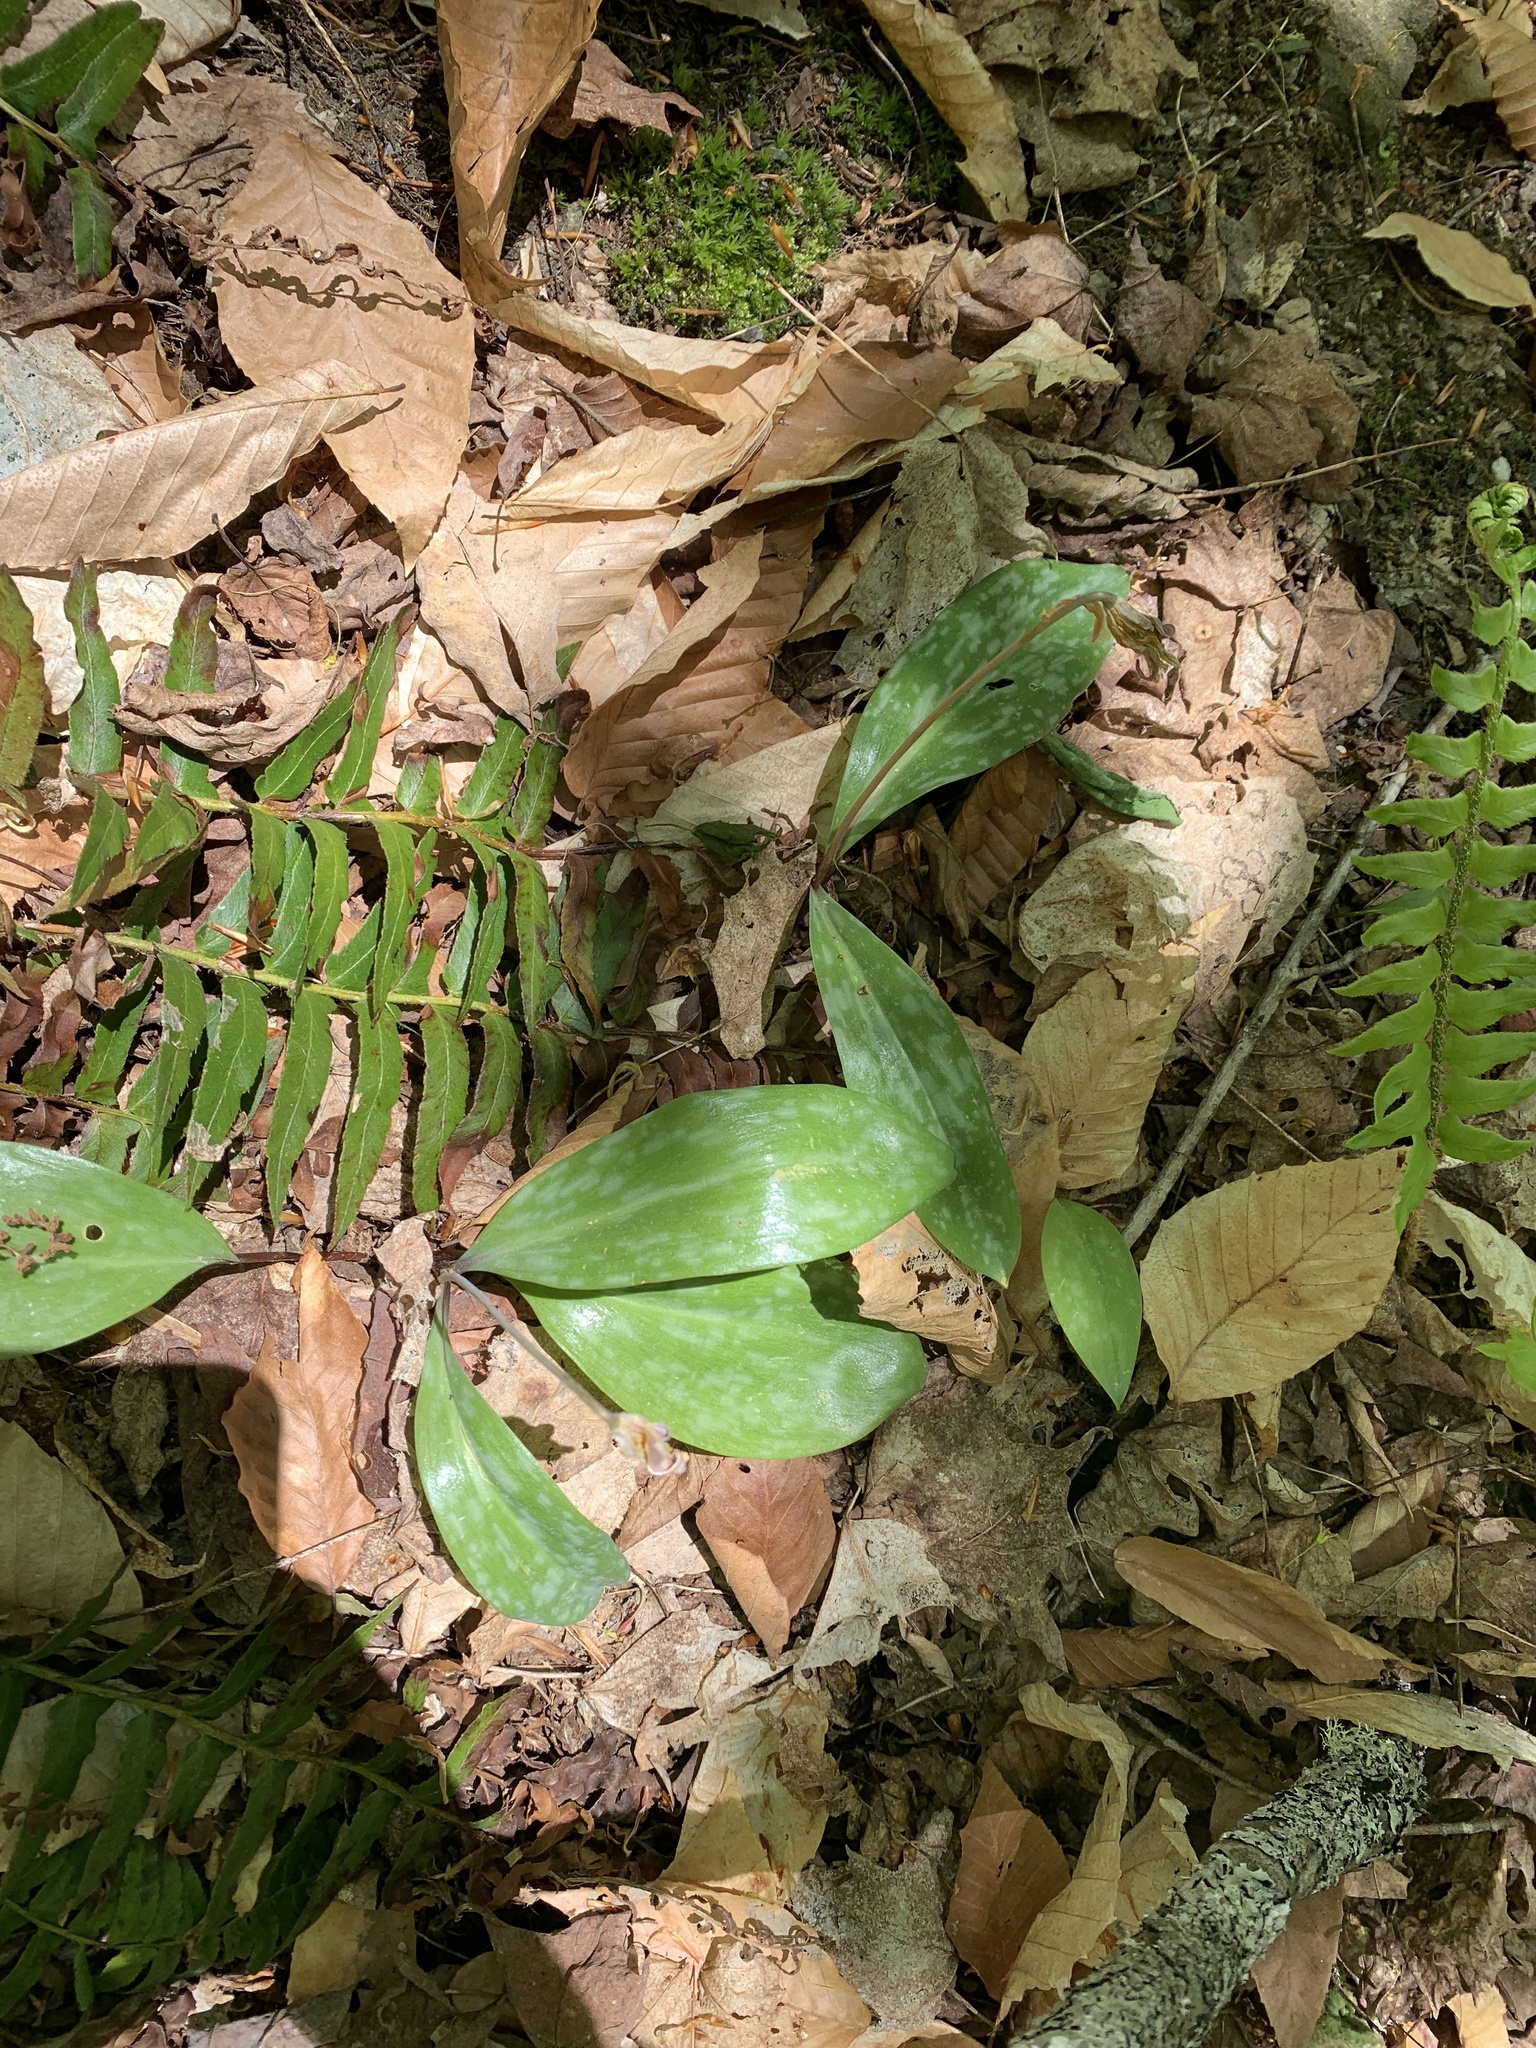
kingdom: Plantae
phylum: Tracheophyta
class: Liliopsida
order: Liliales
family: Liliaceae
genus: Erythronium
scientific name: Erythronium americanum
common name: Yellow adder's-tongue
